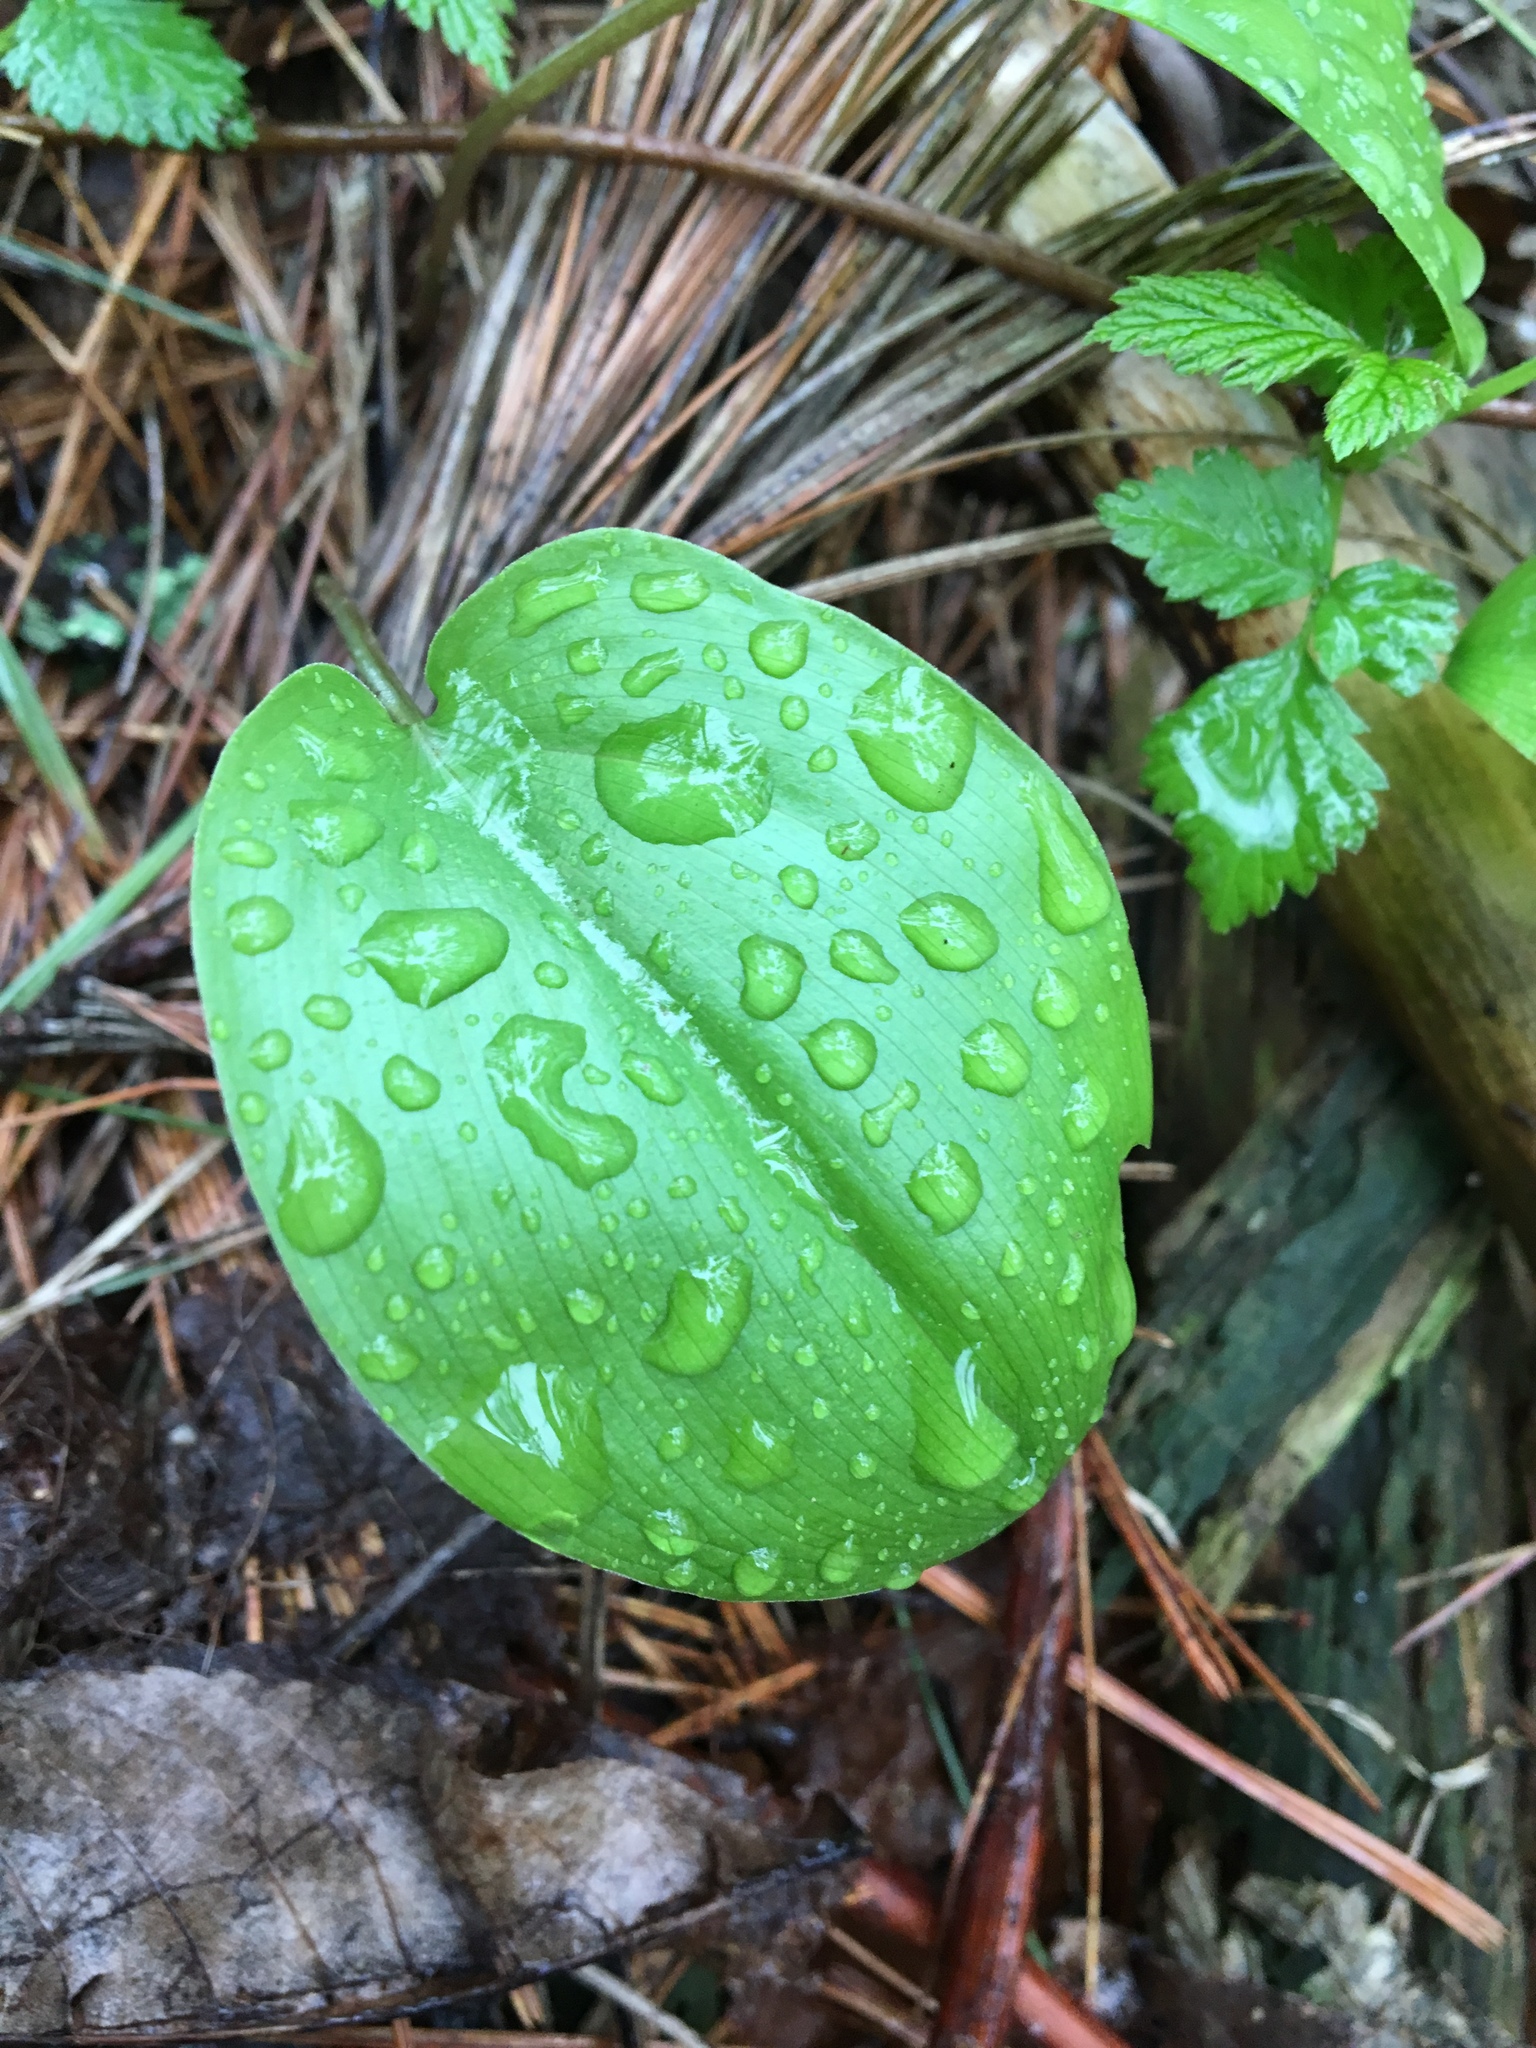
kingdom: Plantae
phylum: Tracheophyta
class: Liliopsida
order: Asparagales
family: Asparagaceae
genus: Maianthemum
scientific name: Maianthemum canadense
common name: False lily-of-the-valley
